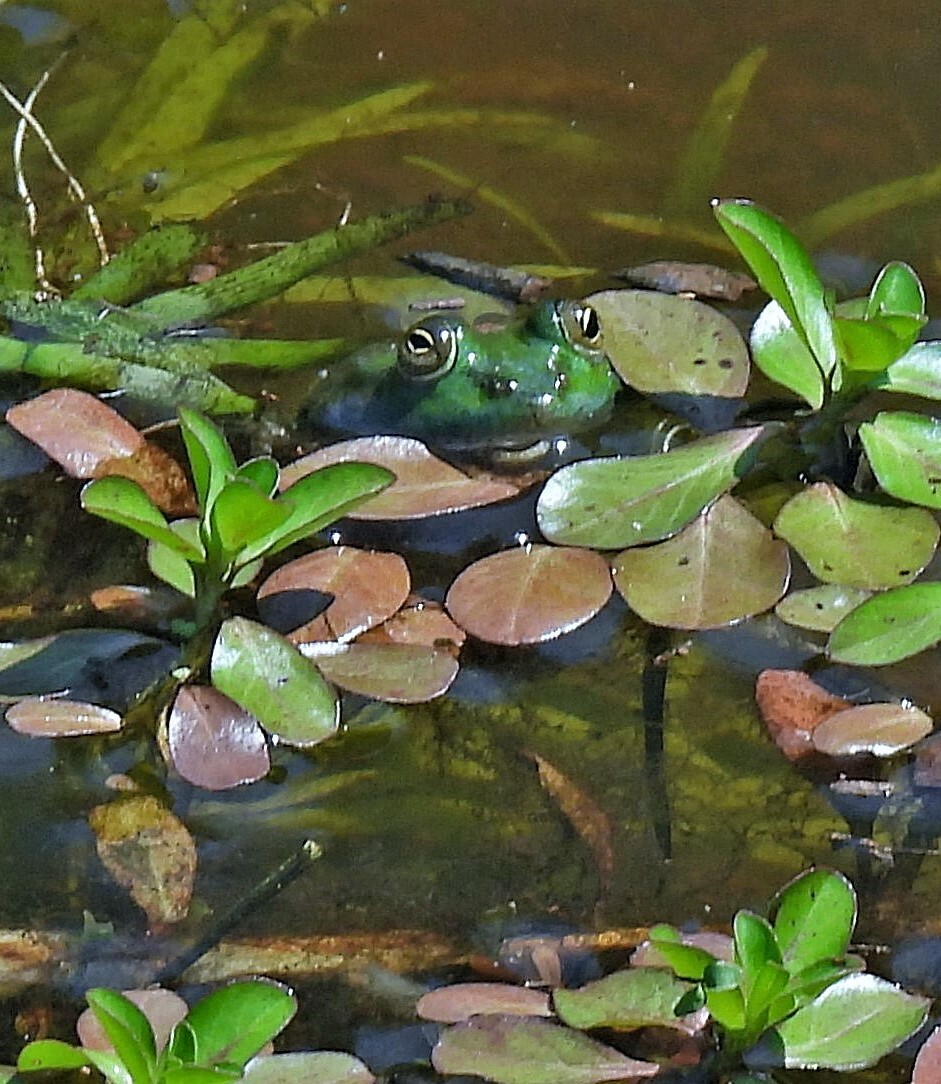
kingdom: Animalia
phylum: Chordata
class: Amphibia
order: Anura
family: Ranidae
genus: Lithobates
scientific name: Lithobates catesbeianus
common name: American bullfrog
